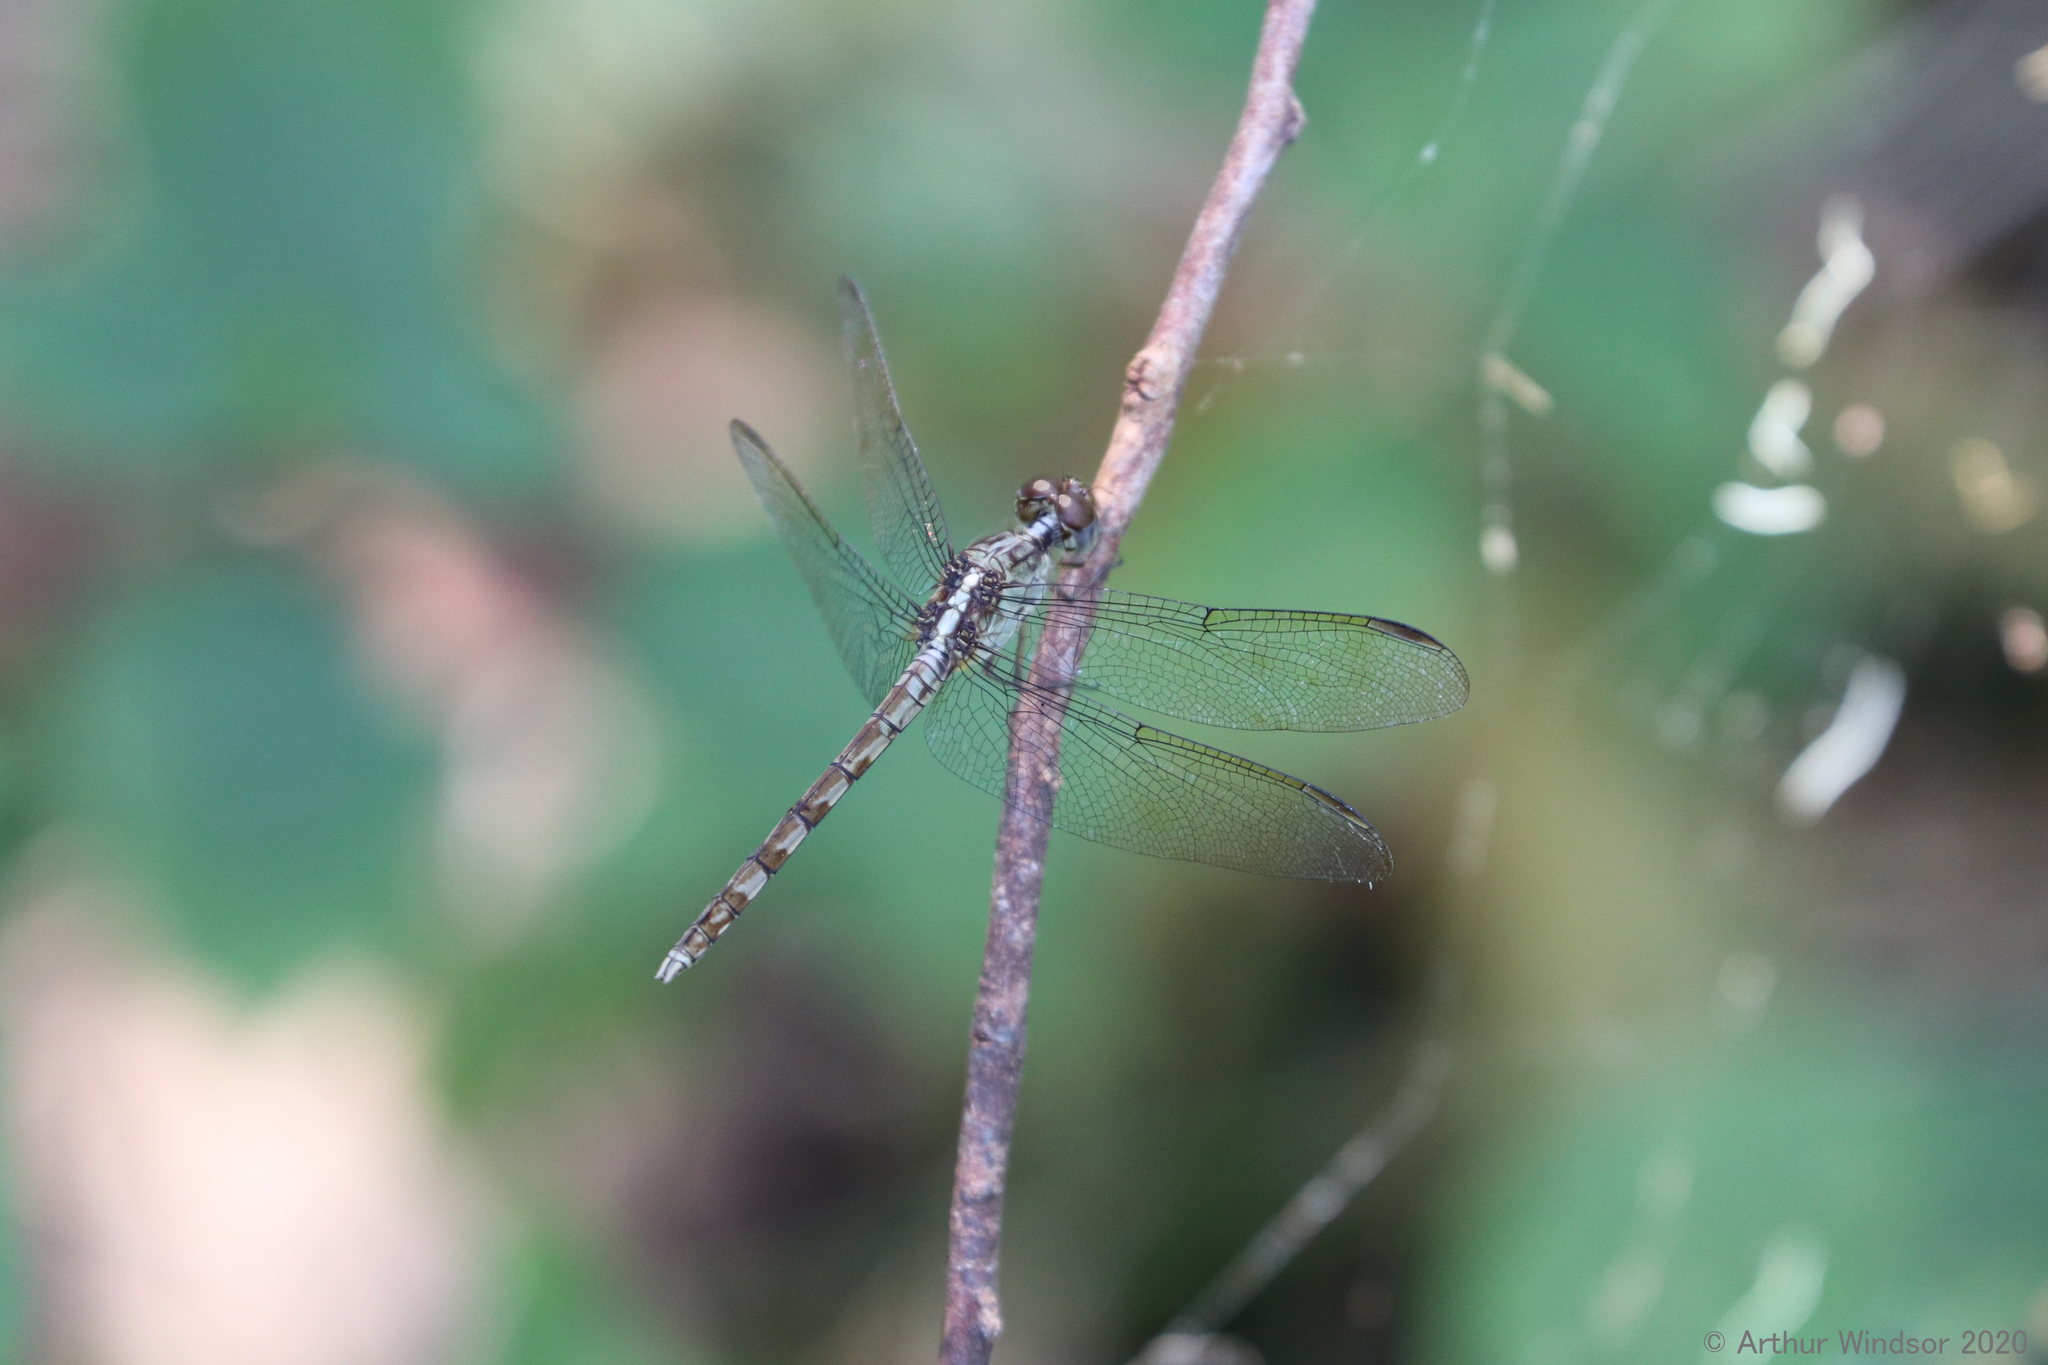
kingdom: Animalia
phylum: Arthropoda
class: Insecta
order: Odonata
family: Libellulidae
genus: Erythrodiplax
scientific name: Erythrodiplax umbrata
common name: Band-winged dragonlet
